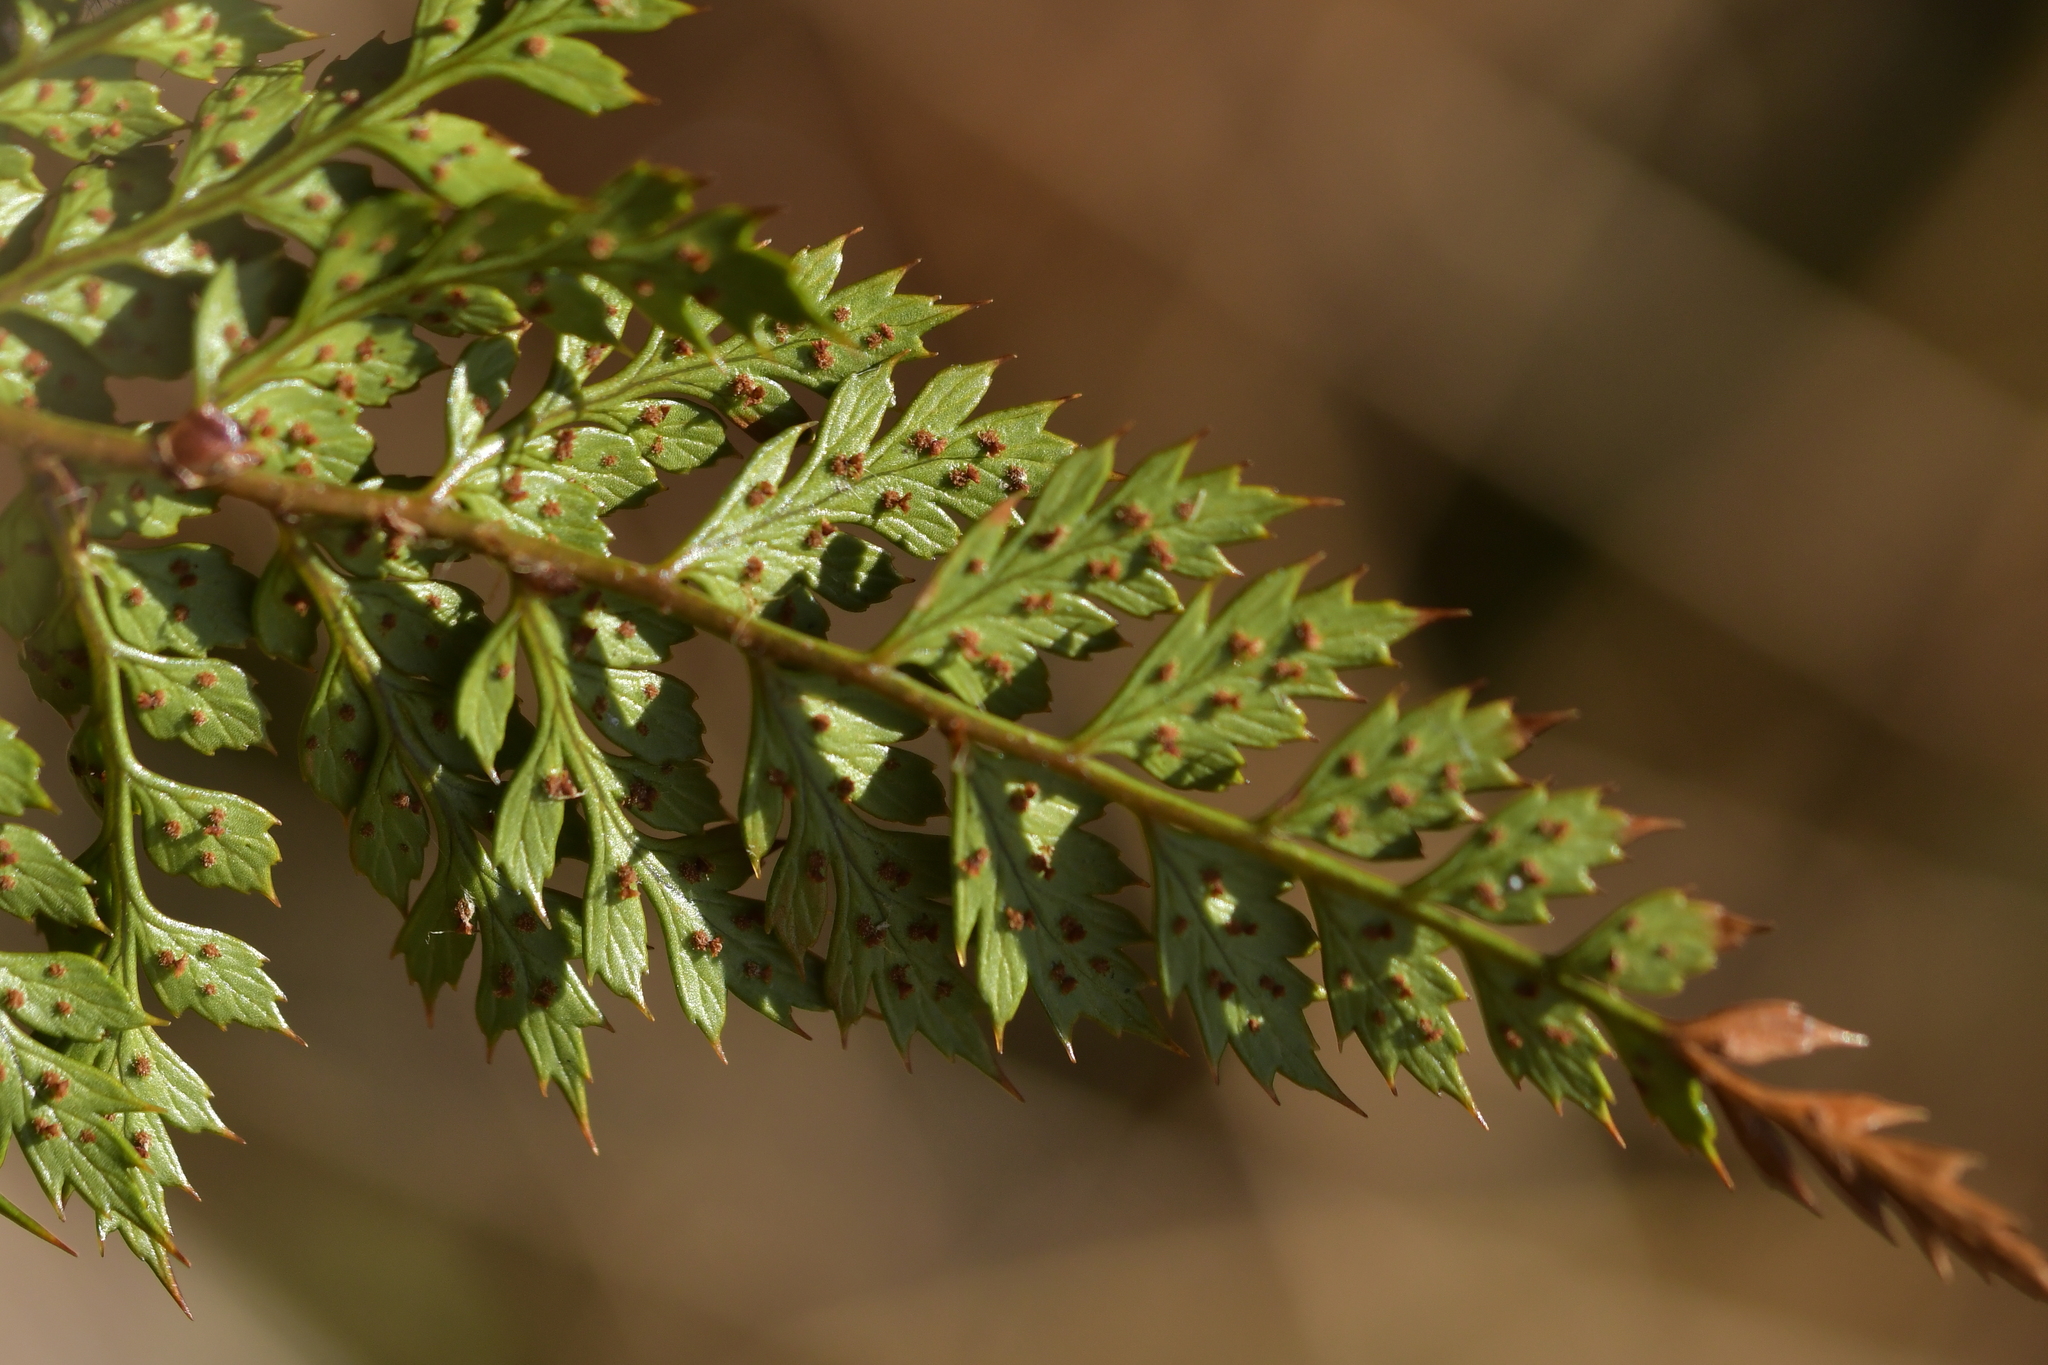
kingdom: Plantae
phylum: Tracheophyta
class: Polypodiopsida
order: Polypodiales
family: Dryopteridaceae
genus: Polystichum
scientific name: Polystichum vestitum
